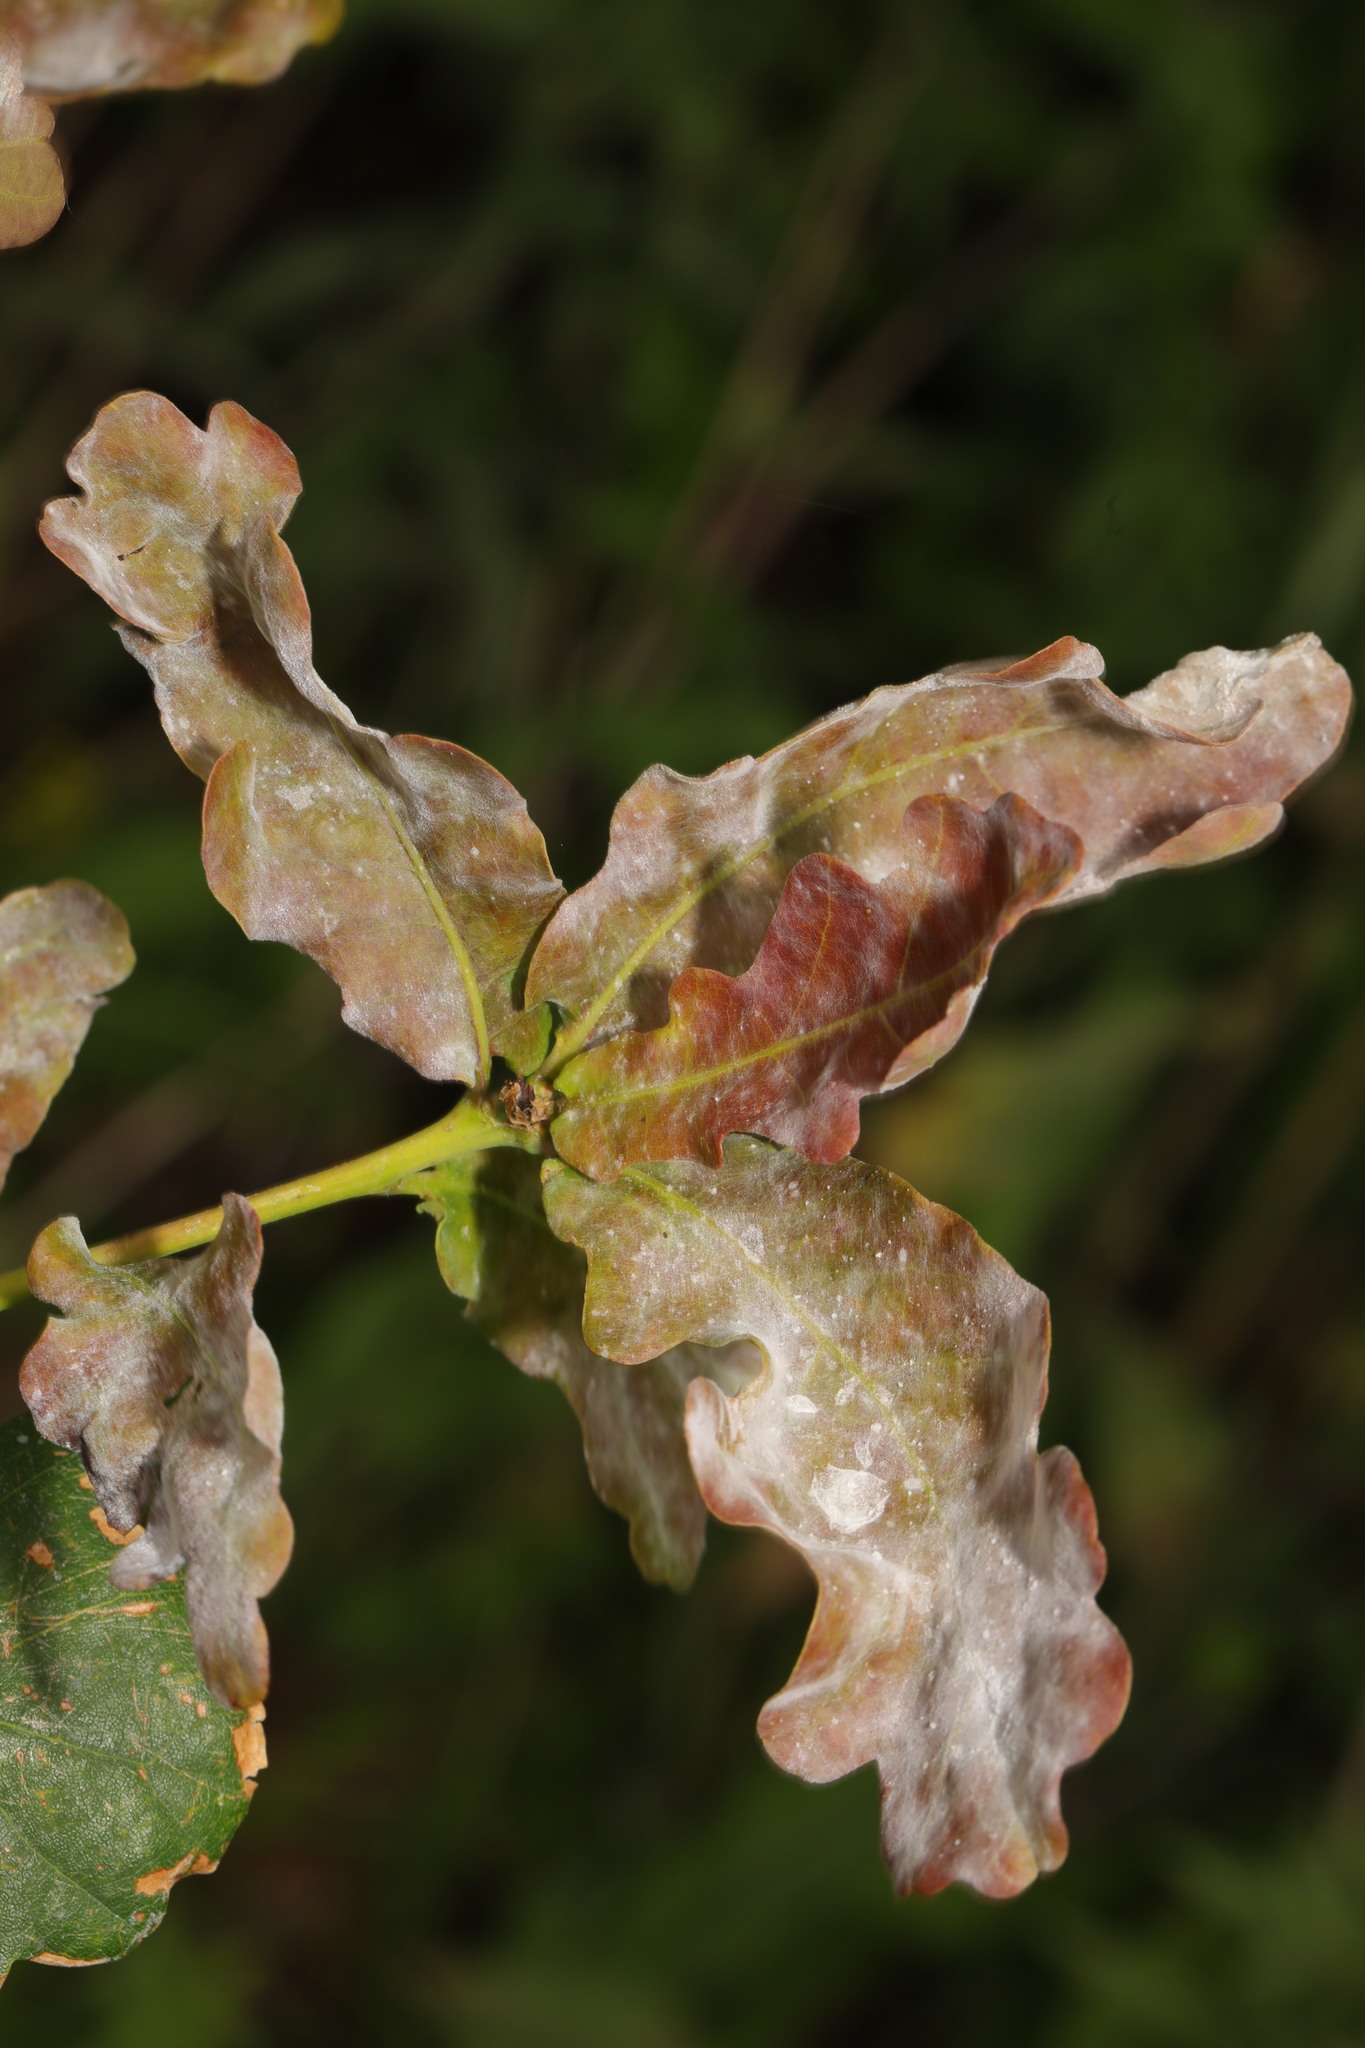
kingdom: Fungi
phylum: Ascomycota
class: Leotiomycetes
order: Helotiales
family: Erysiphaceae
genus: Erysiphe
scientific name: Erysiphe alphitoides
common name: Oak mildew
